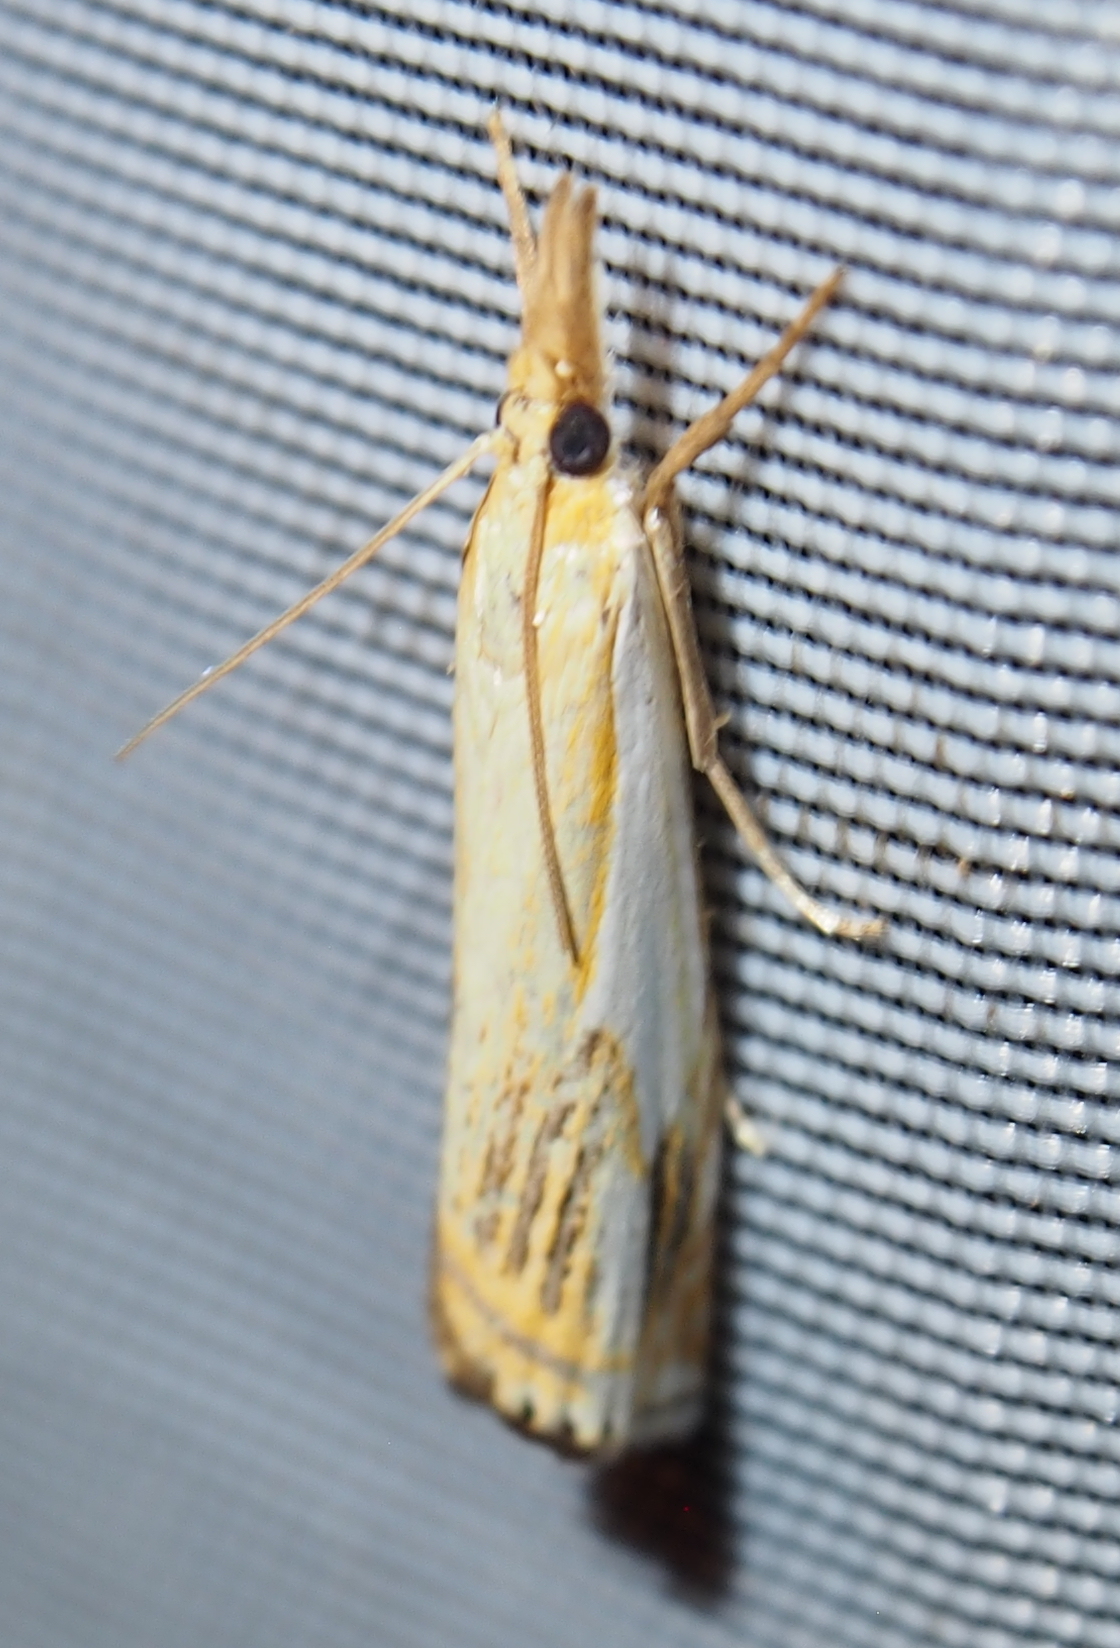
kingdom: Animalia
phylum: Arthropoda
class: Insecta
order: Lepidoptera
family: Crambidae
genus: Crambus
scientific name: Crambus agitatellus
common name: Double-banded grass-veneer
